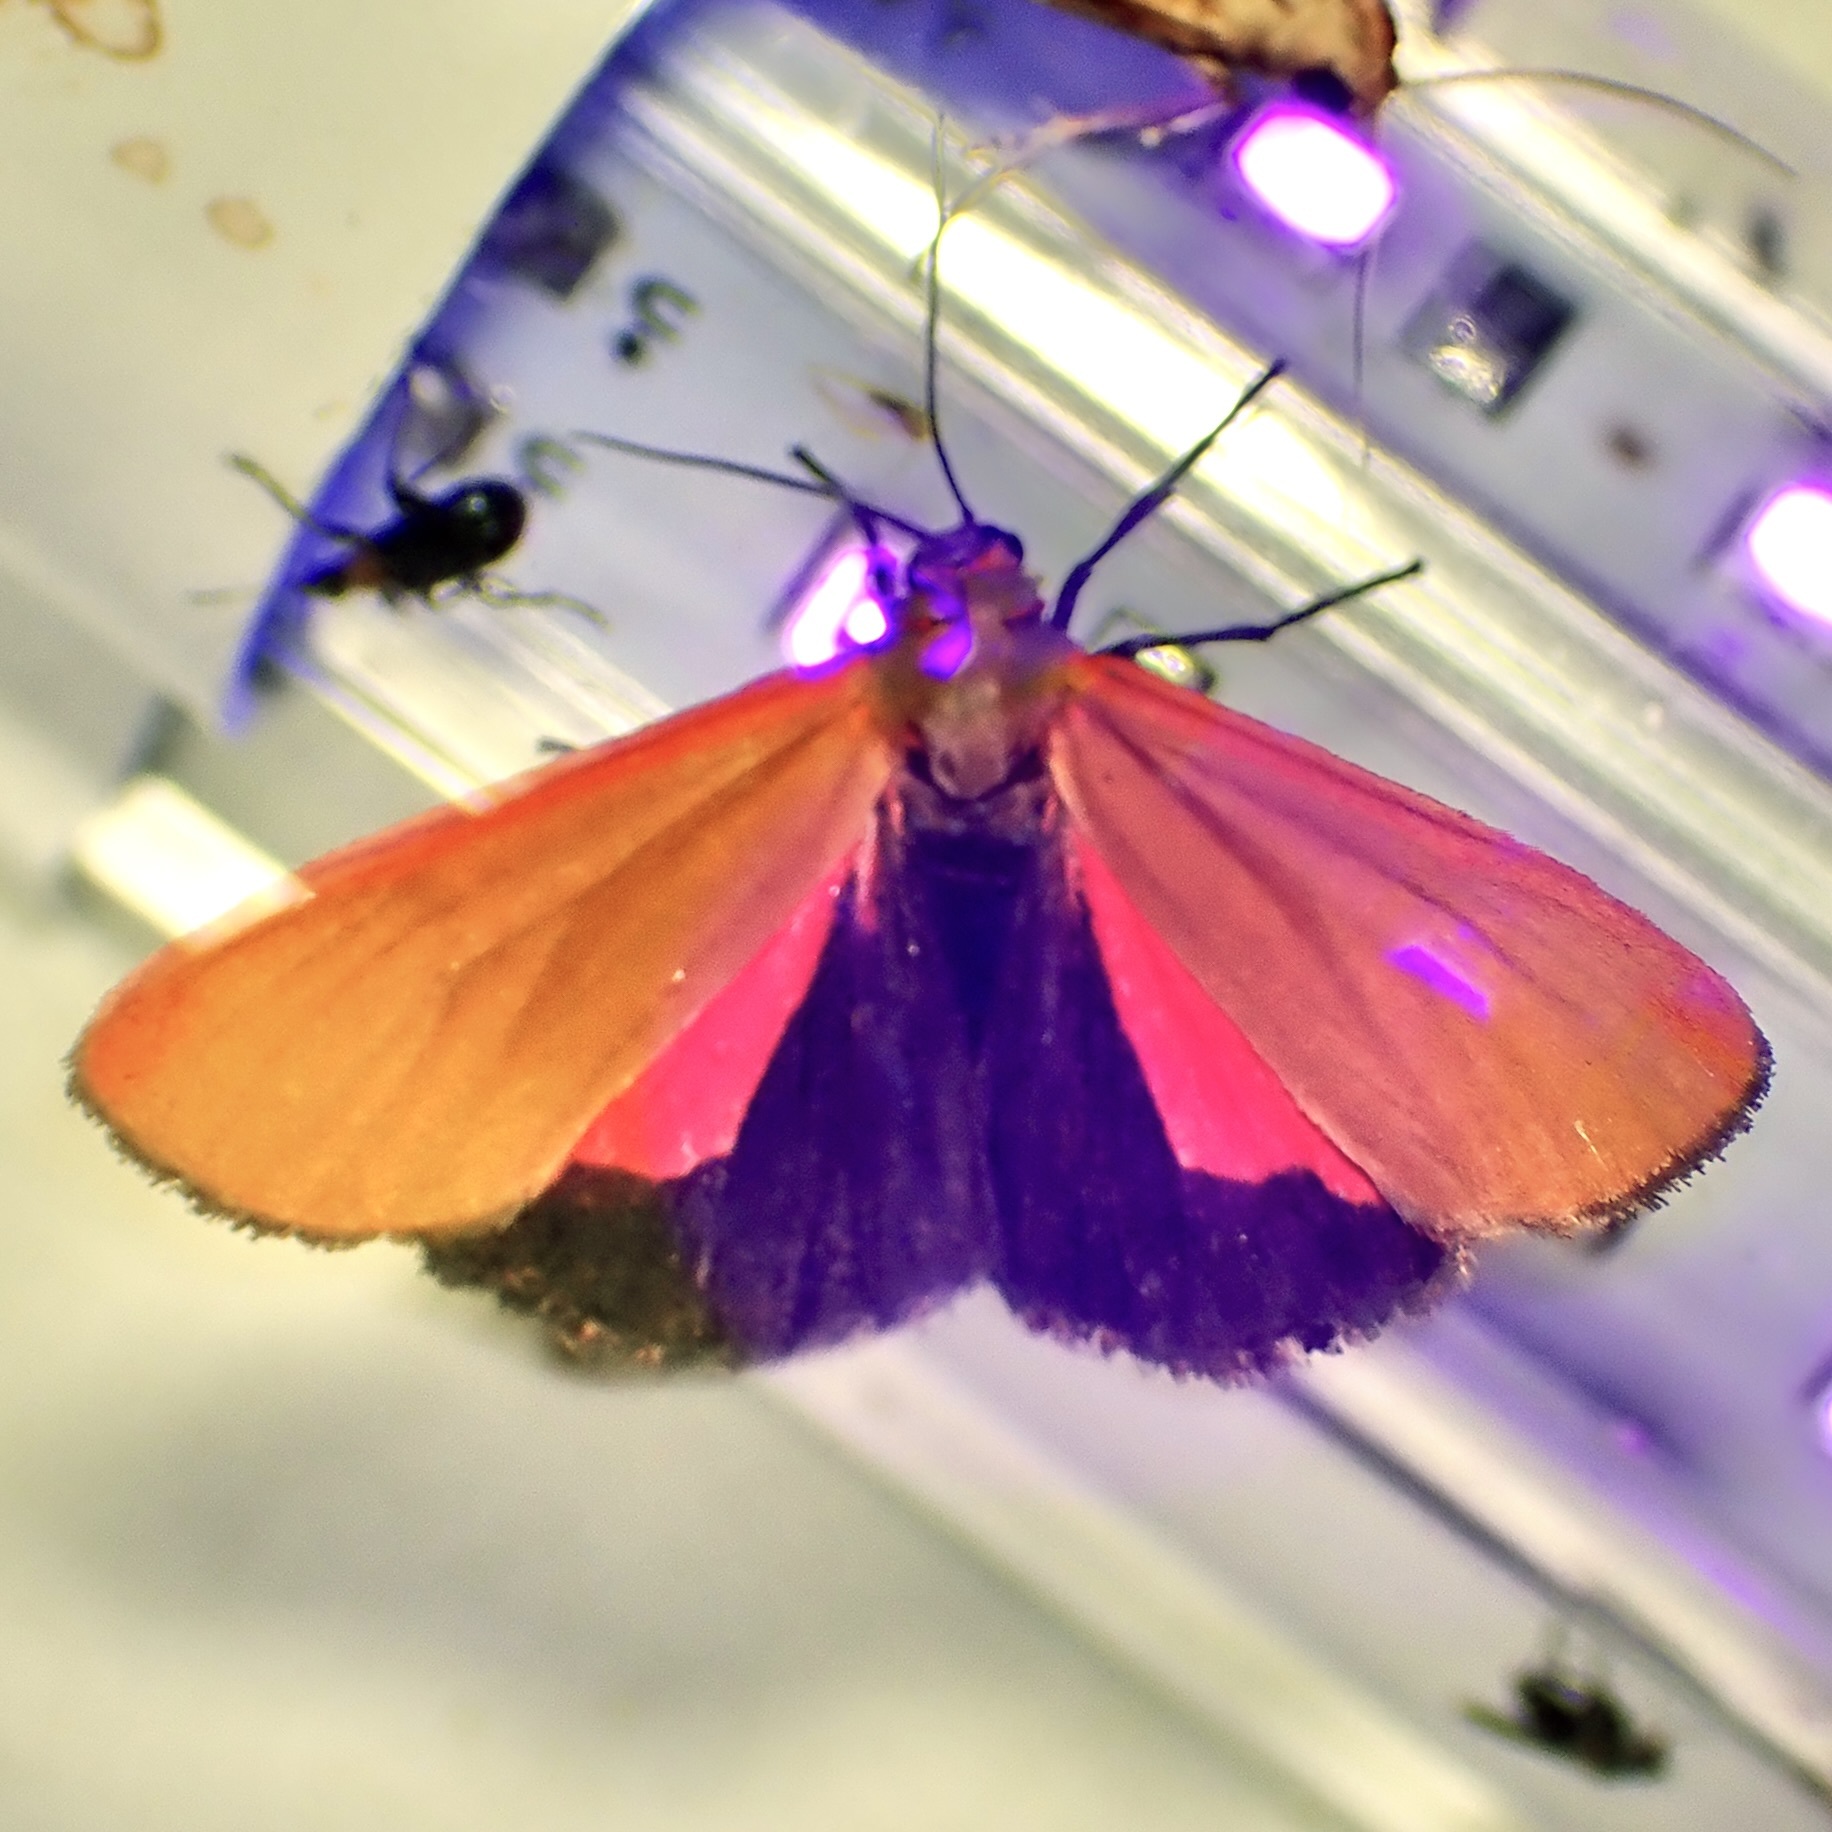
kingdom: Animalia
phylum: Arthropoda
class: Insecta
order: Lepidoptera
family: Erebidae
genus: Virbia
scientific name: Virbia ostenta
